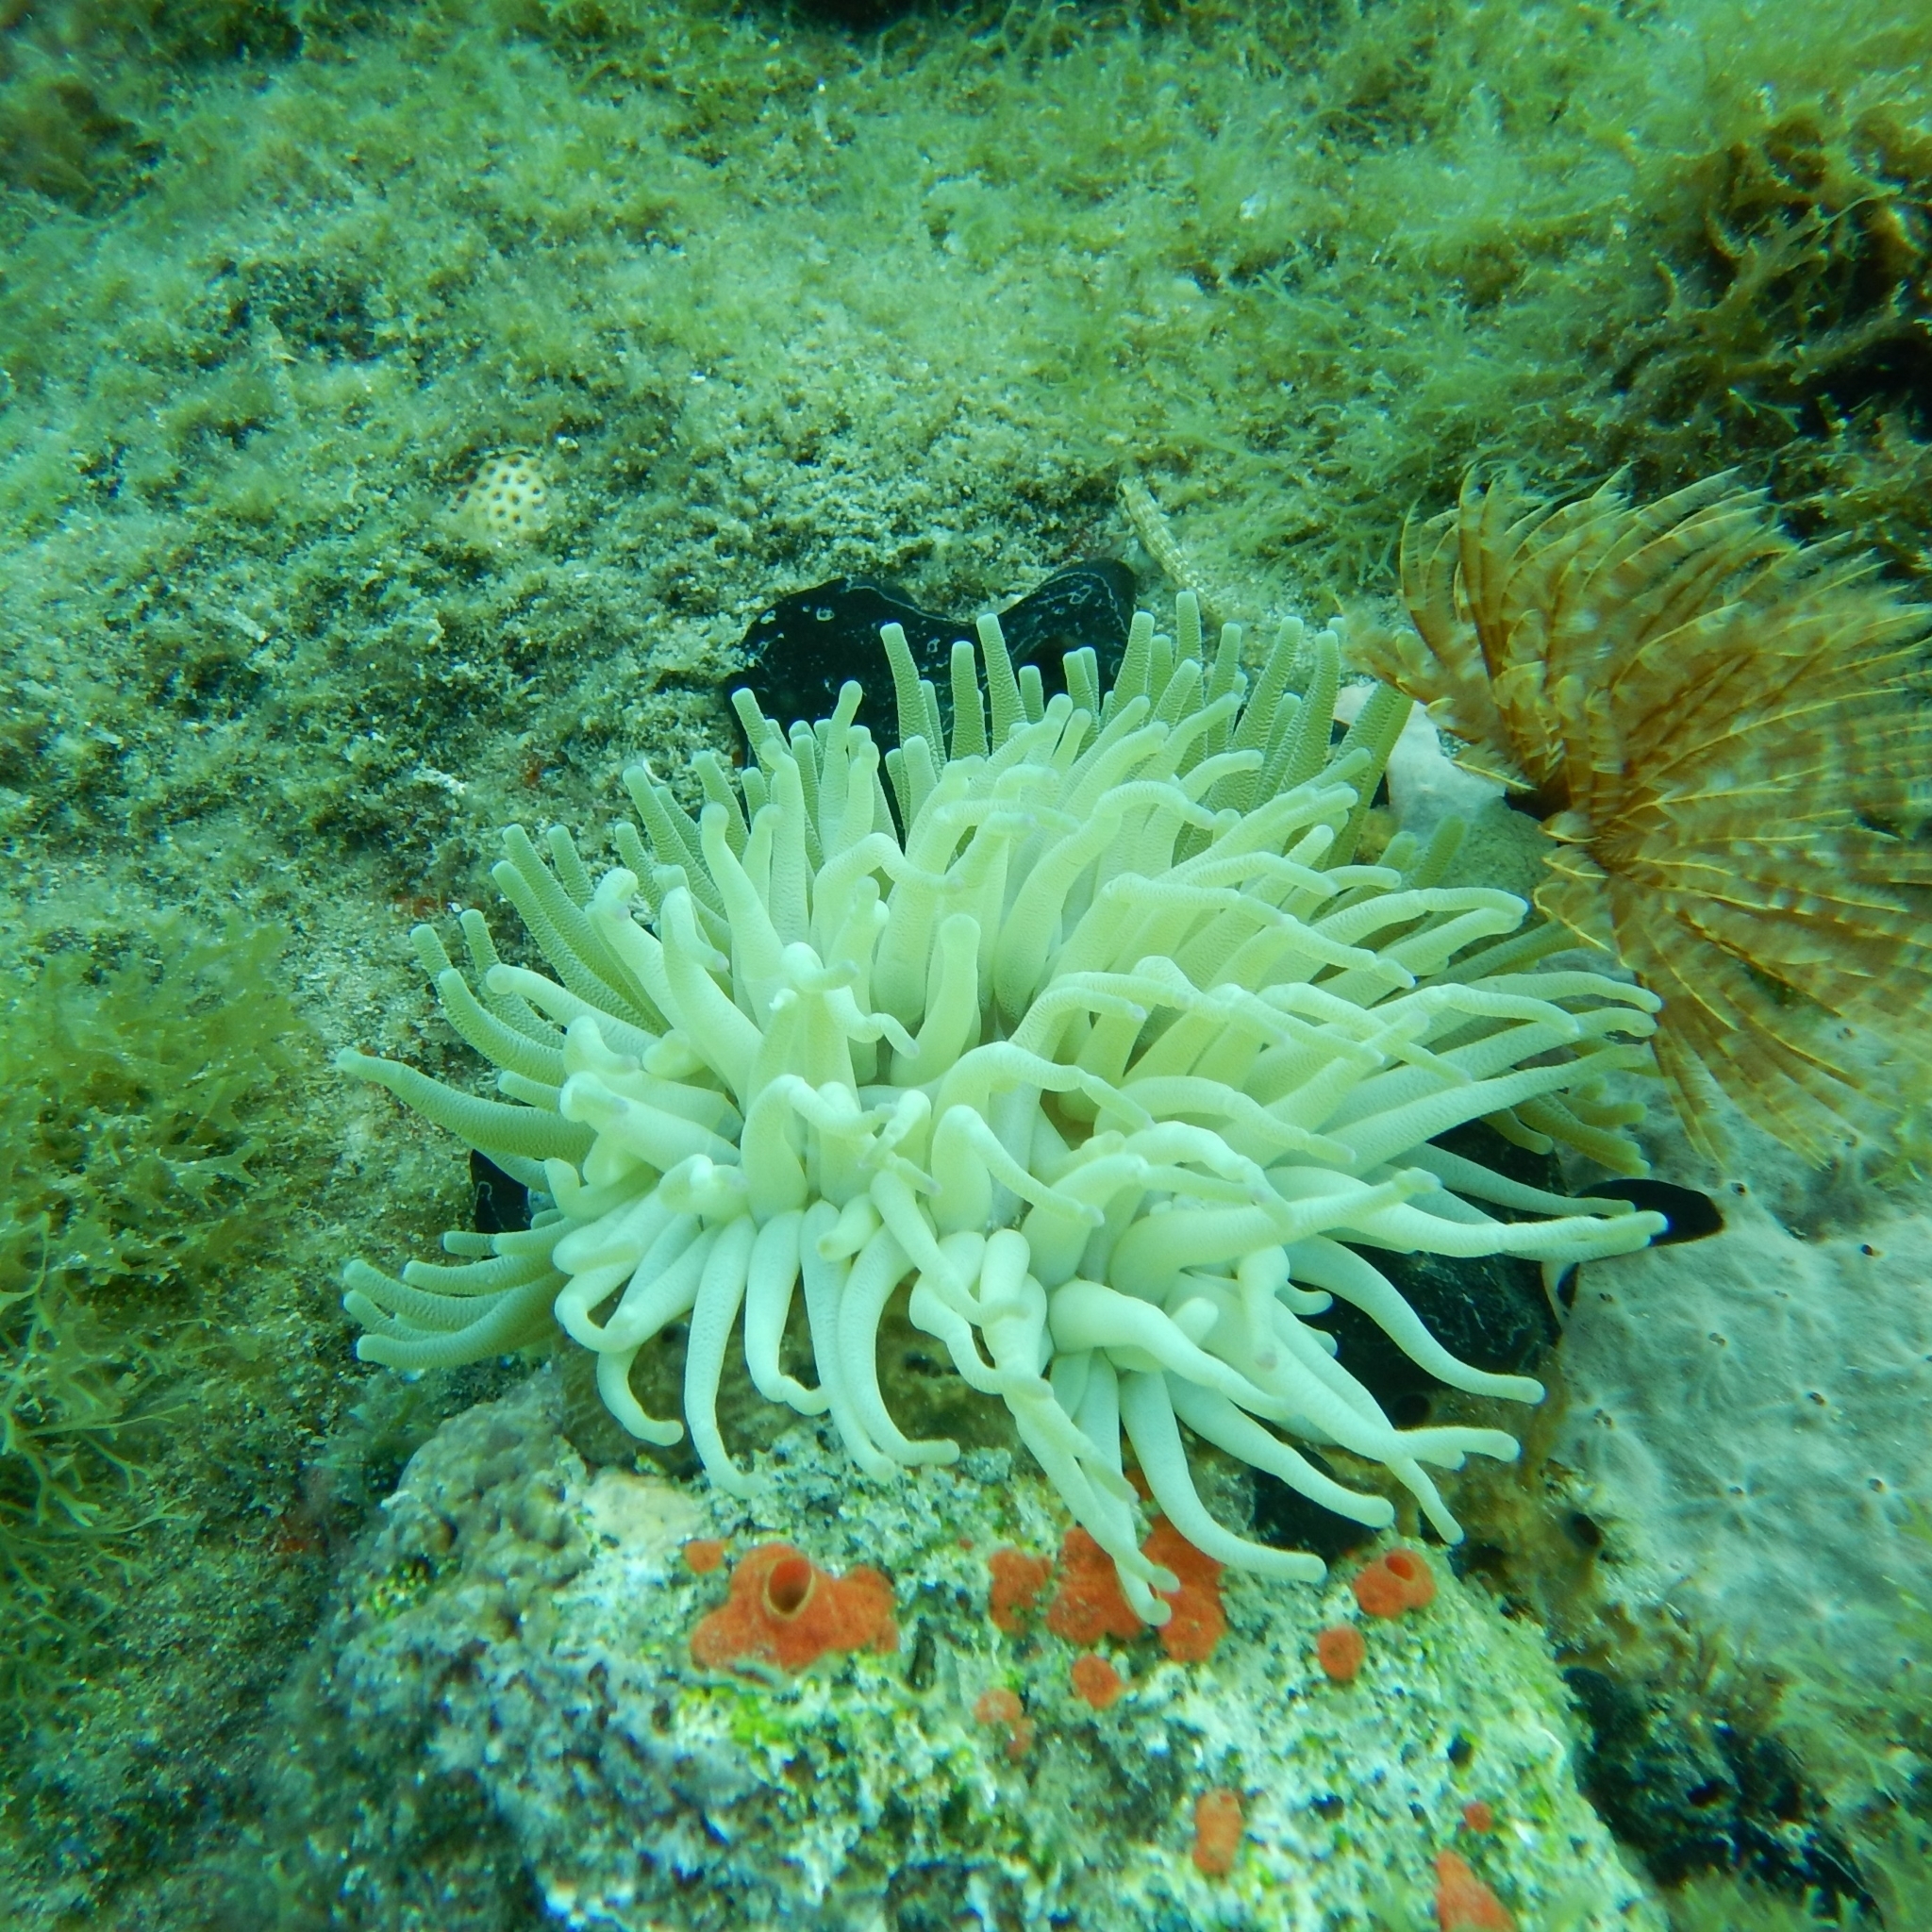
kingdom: Animalia
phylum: Cnidaria
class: Anthozoa
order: Actiniaria
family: Actiniidae
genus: Condylactis
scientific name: Condylactis gigantea
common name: Giant caribbean anemone
